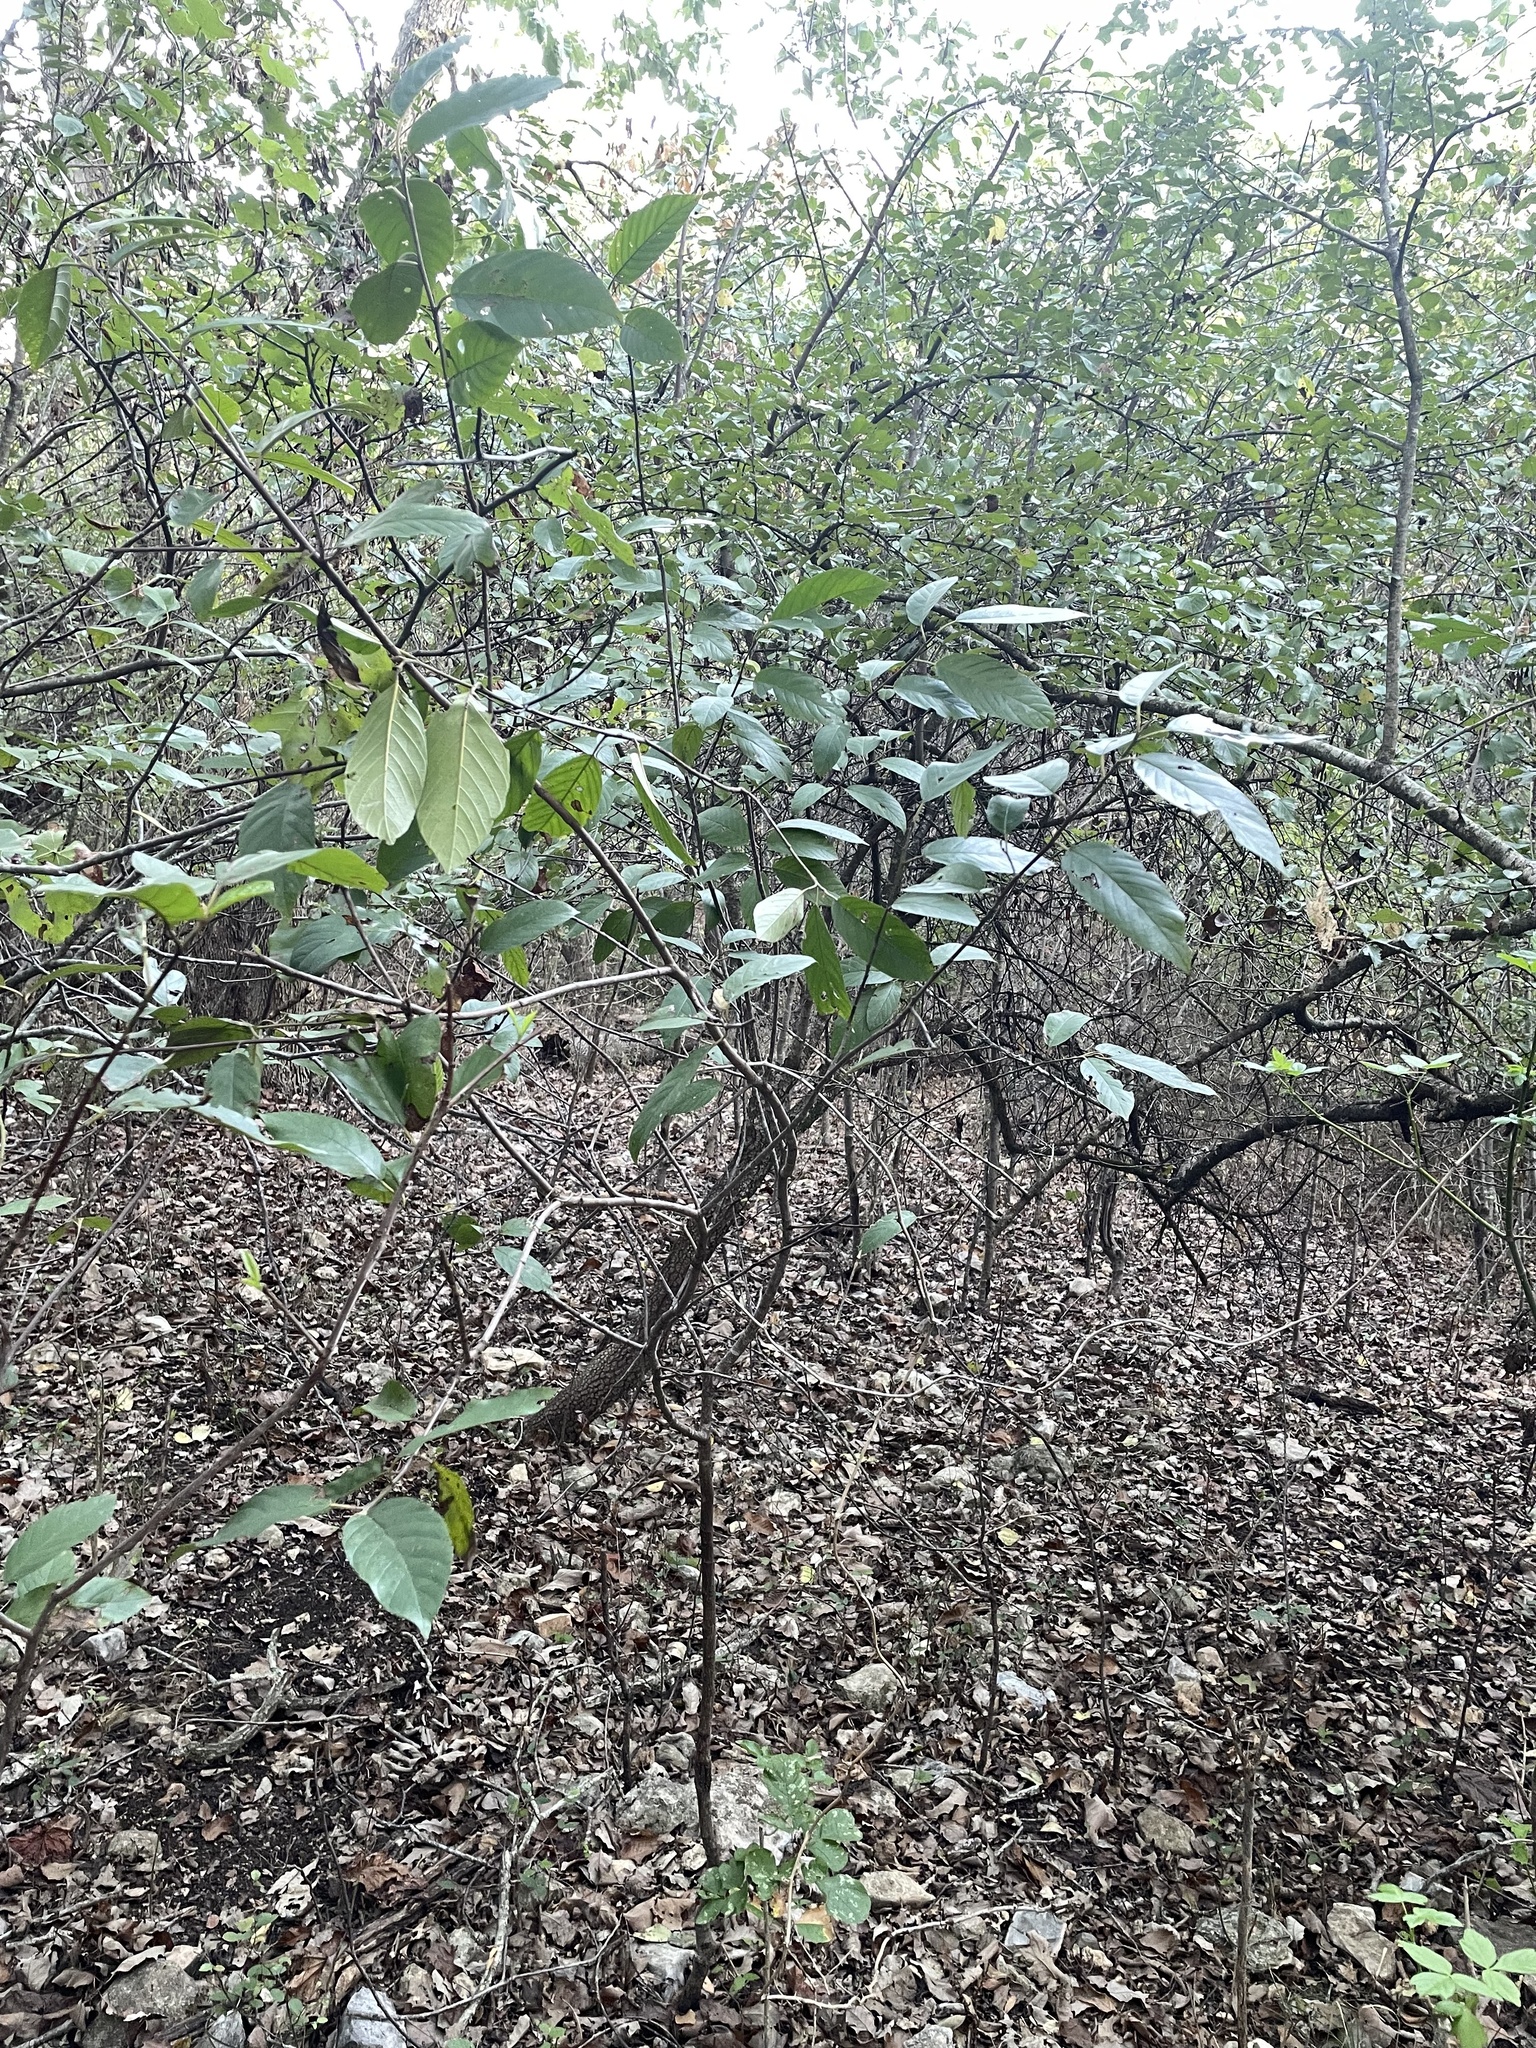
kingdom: Plantae
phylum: Tracheophyta
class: Magnoliopsida
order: Rosales
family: Rhamnaceae
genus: Frangula
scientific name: Frangula caroliniana
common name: Carolina buckthorn
